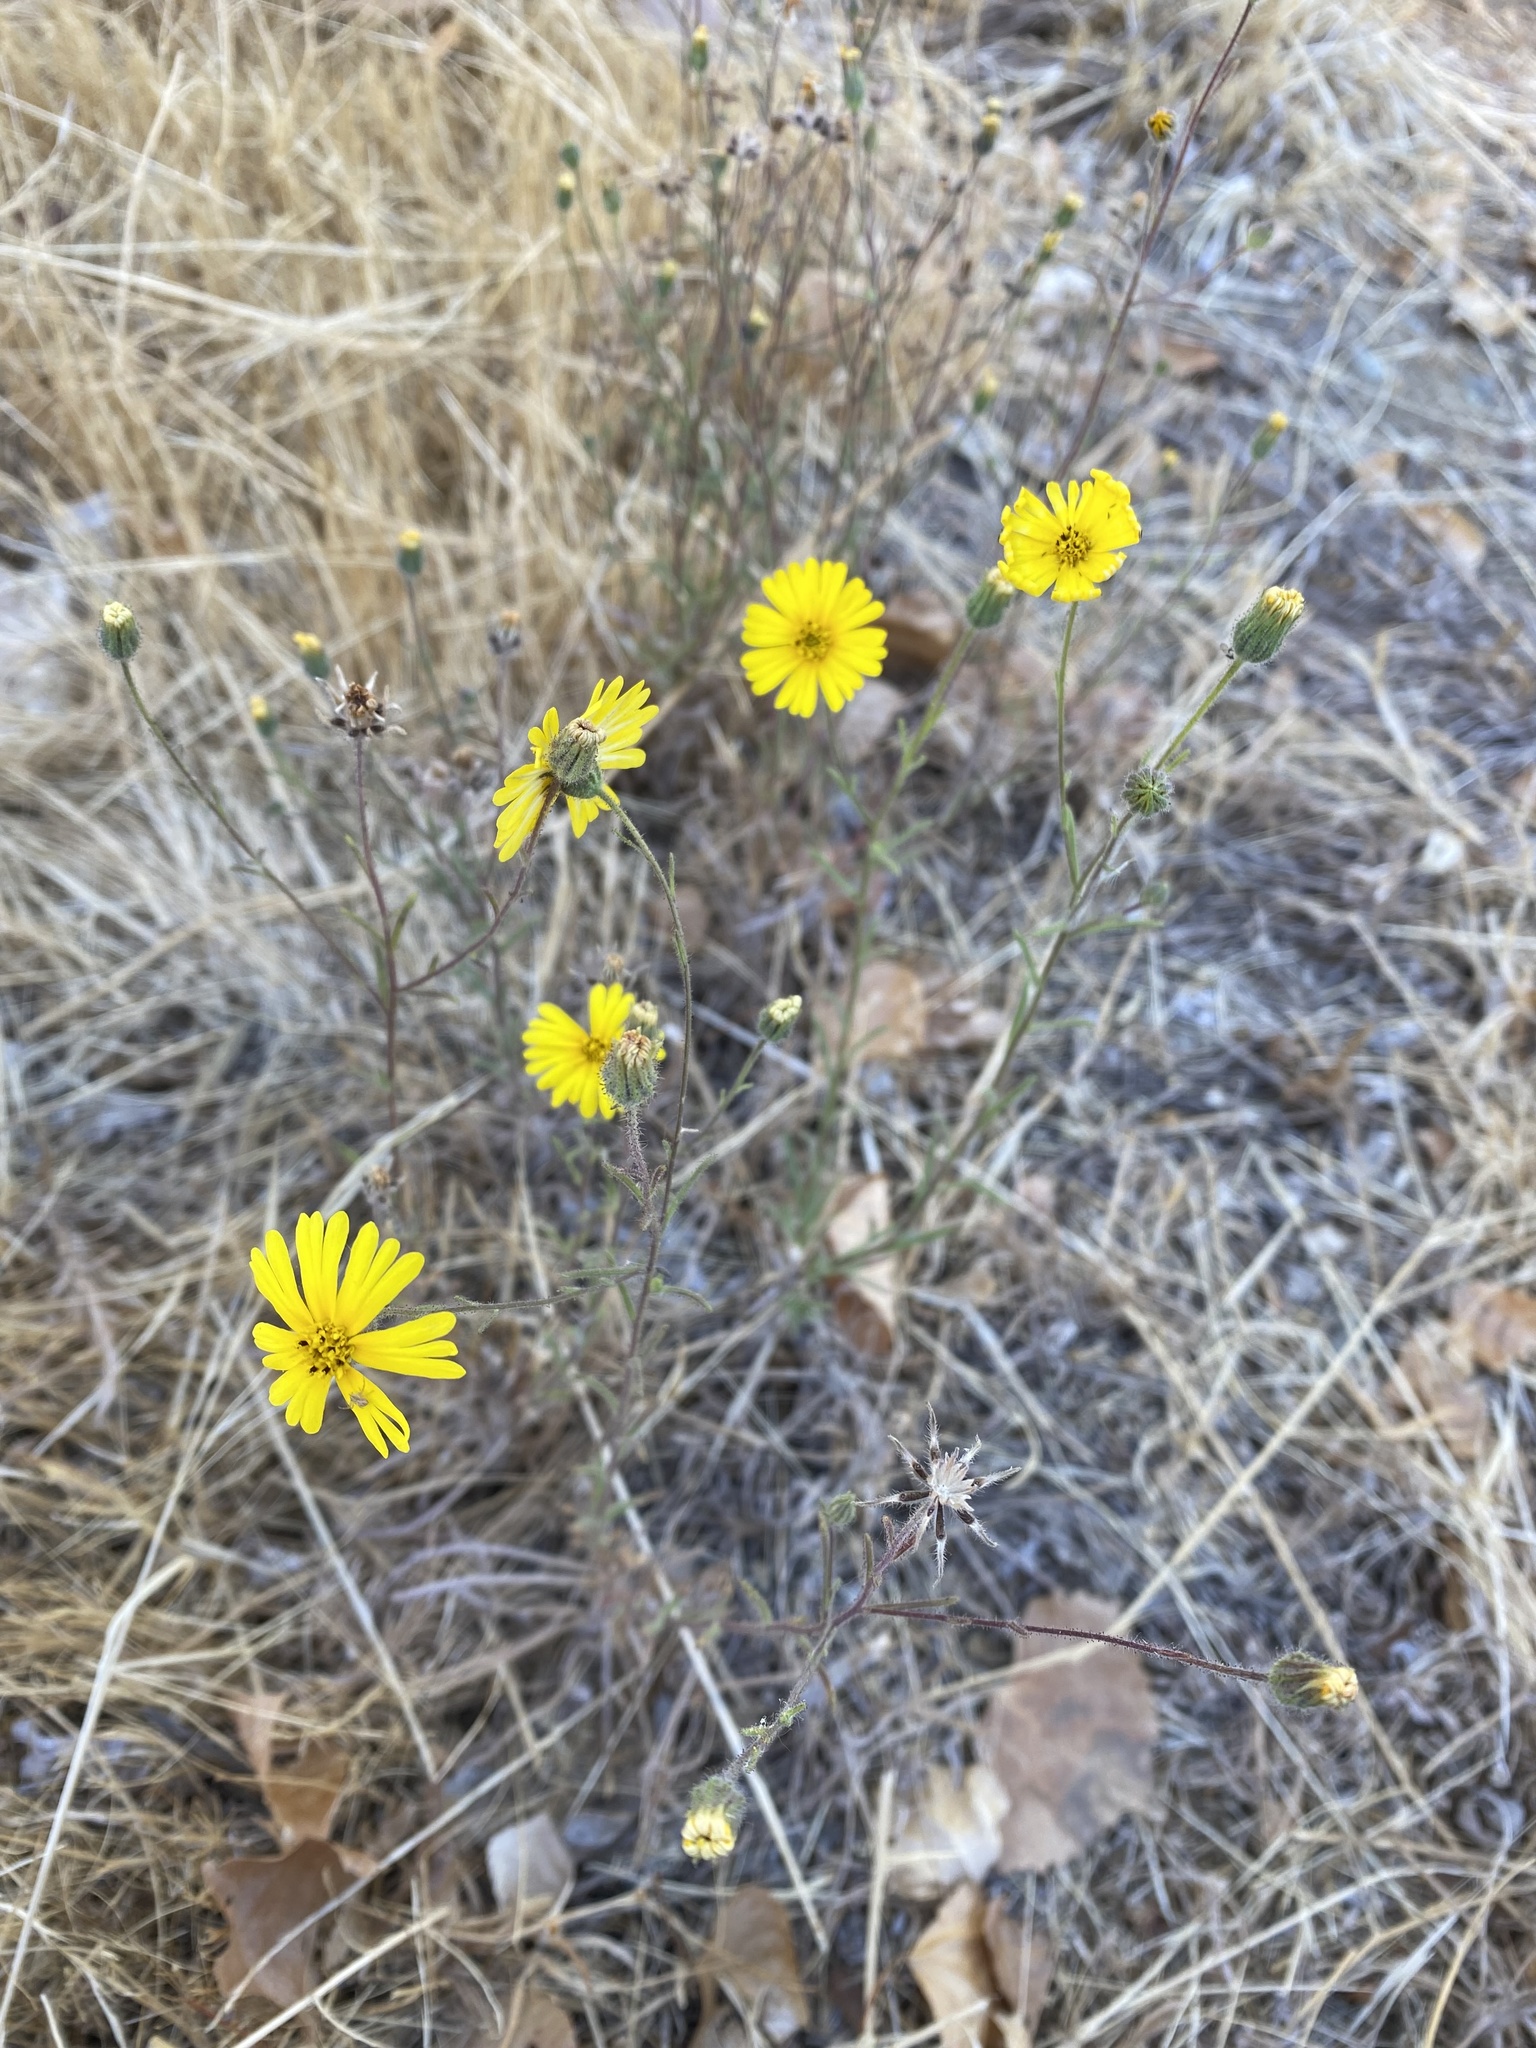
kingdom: Plantae
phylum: Tracheophyta
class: Magnoliopsida
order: Asterales
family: Asteraceae
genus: Madia
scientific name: Madia elegans
